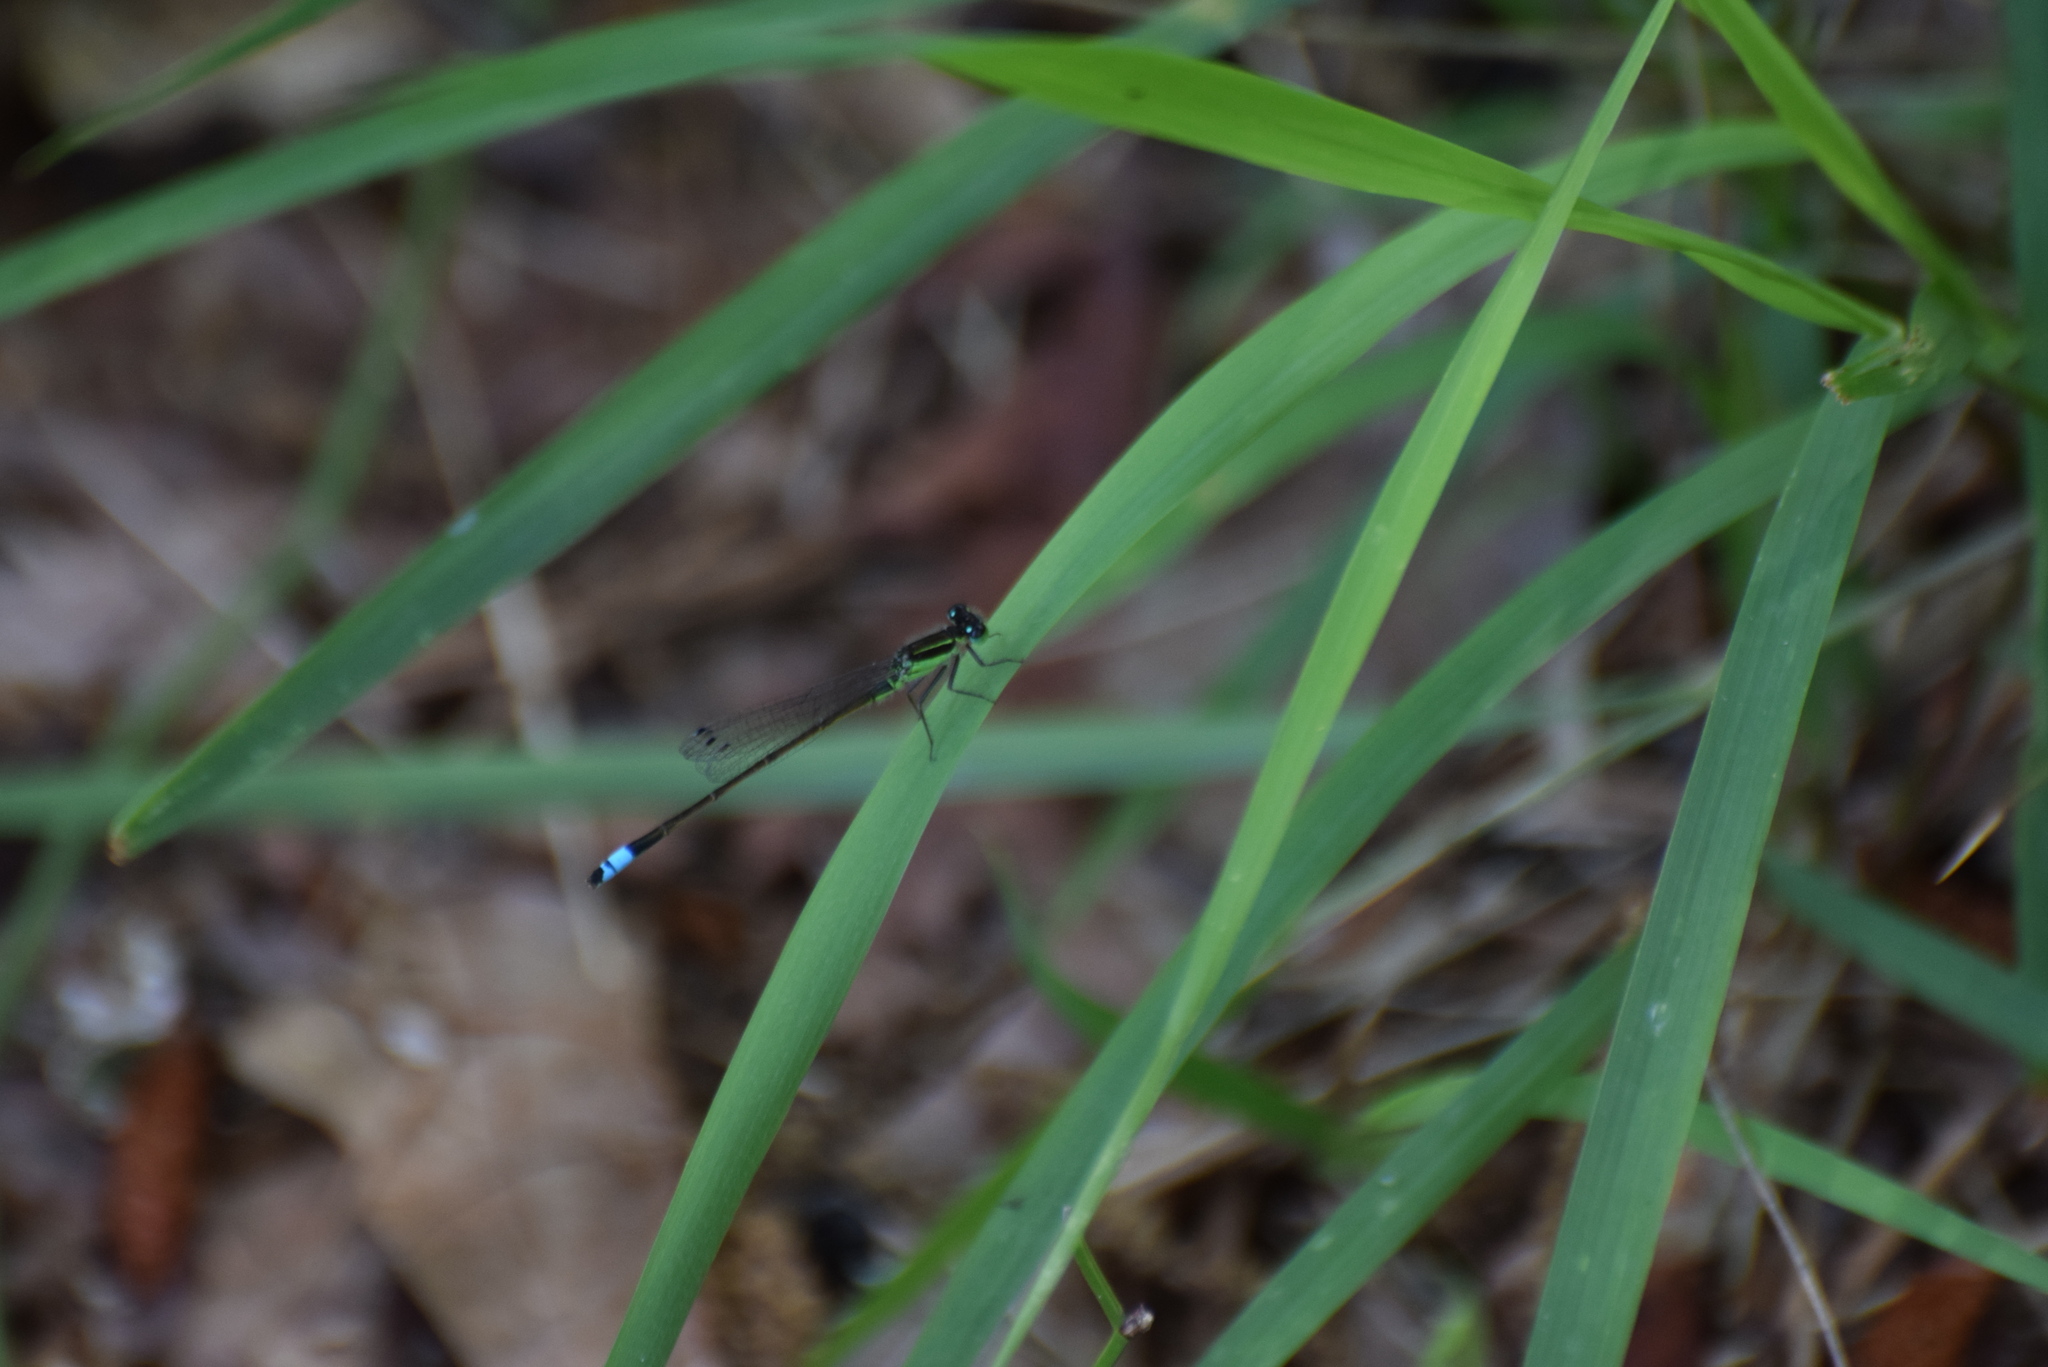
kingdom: Animalia
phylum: Arthropoda
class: Insecta
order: Odonata
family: Coenagrionidae
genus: Ischnura
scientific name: Ischnura ramburii
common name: Rambur's forktail
